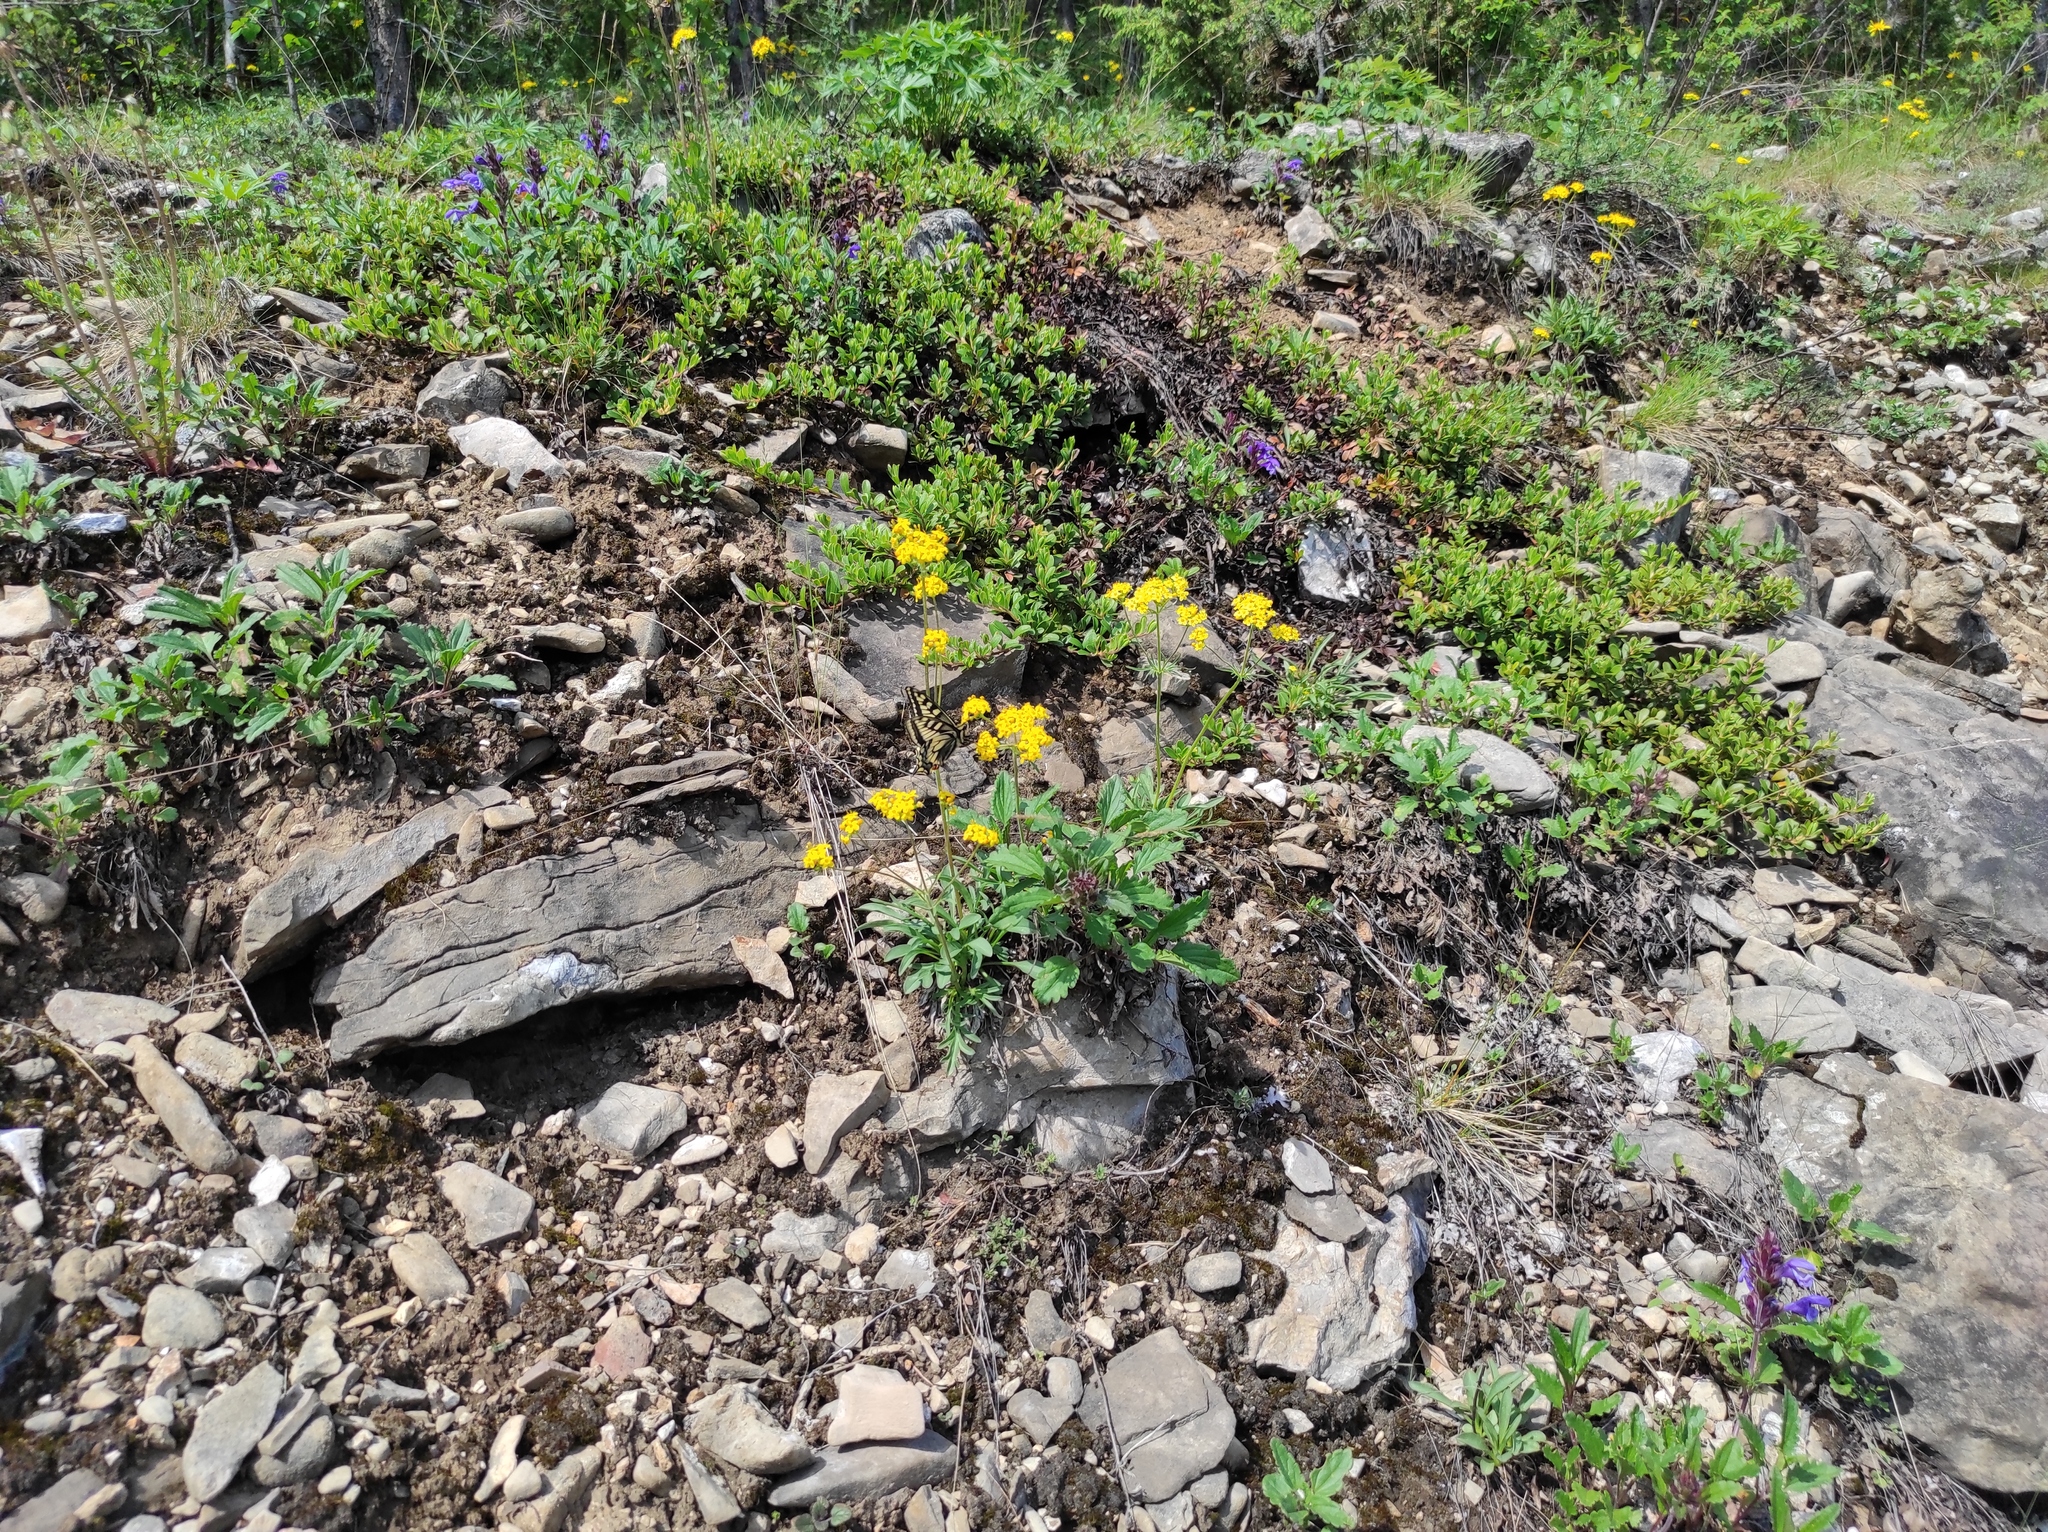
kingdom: Plantae
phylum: Tracheophyta
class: Magnoliopsida
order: Ericales
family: Ericaceae
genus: Arctostaphylos
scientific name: Arctostaphylos uva-ursi
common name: Bearberry
